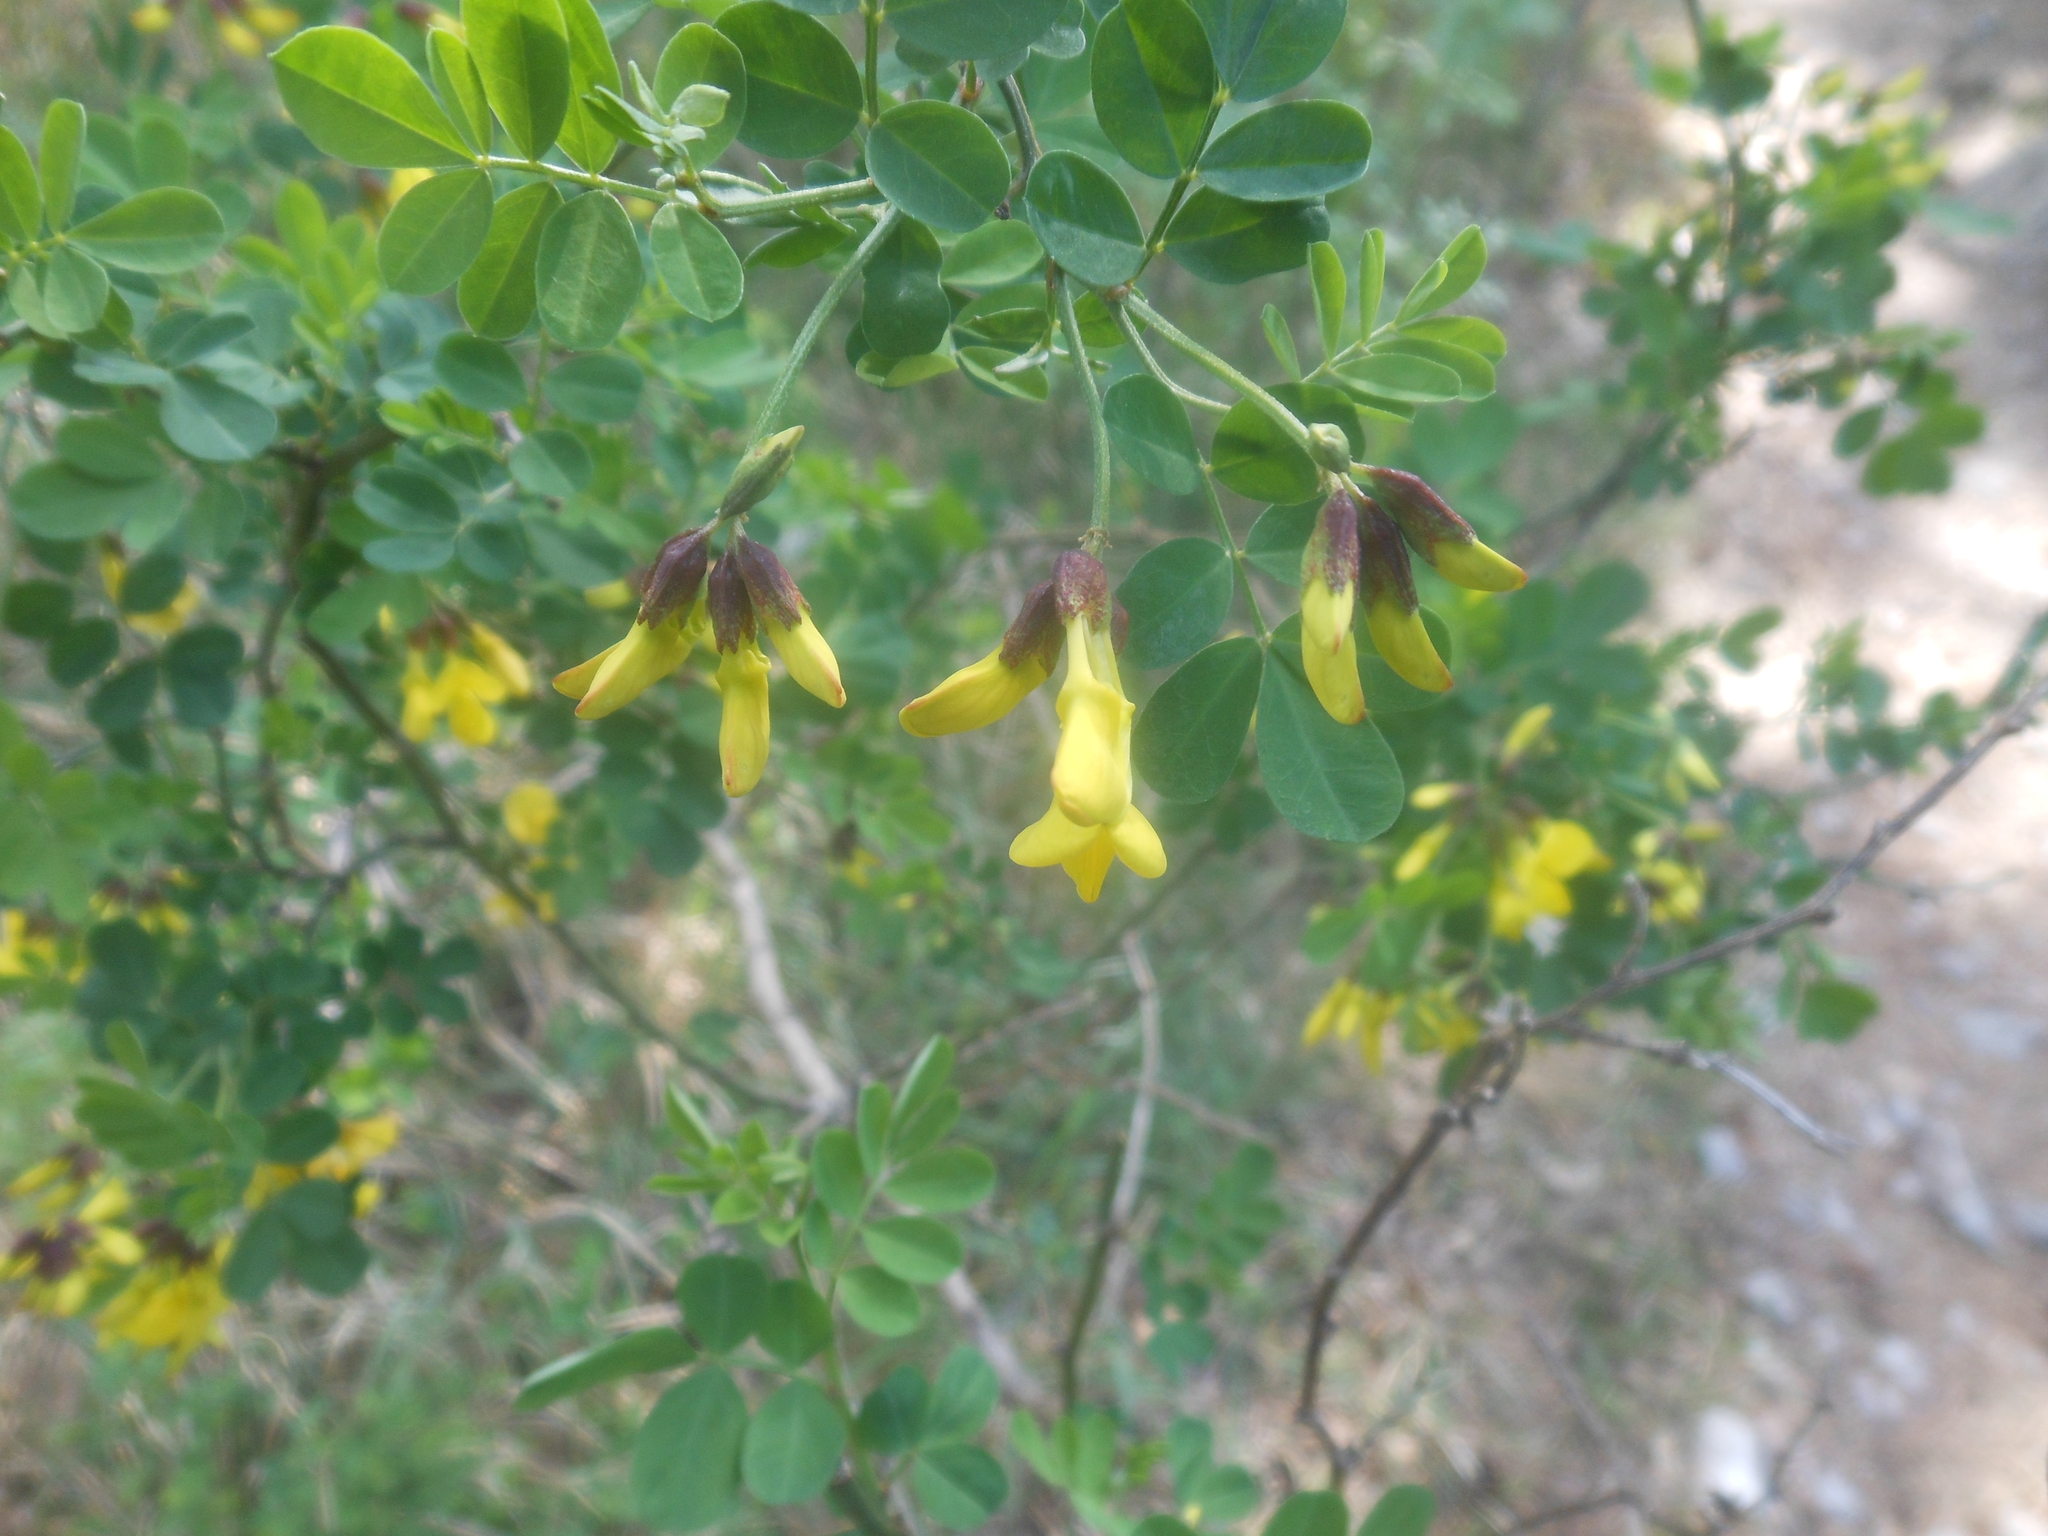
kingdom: Plantae
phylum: Tracheophyta
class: Magnoliopsida
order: Fabales
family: Fabaceae
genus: Hippocrepis
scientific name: Hippocrepis emerus
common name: Scorpion senna
